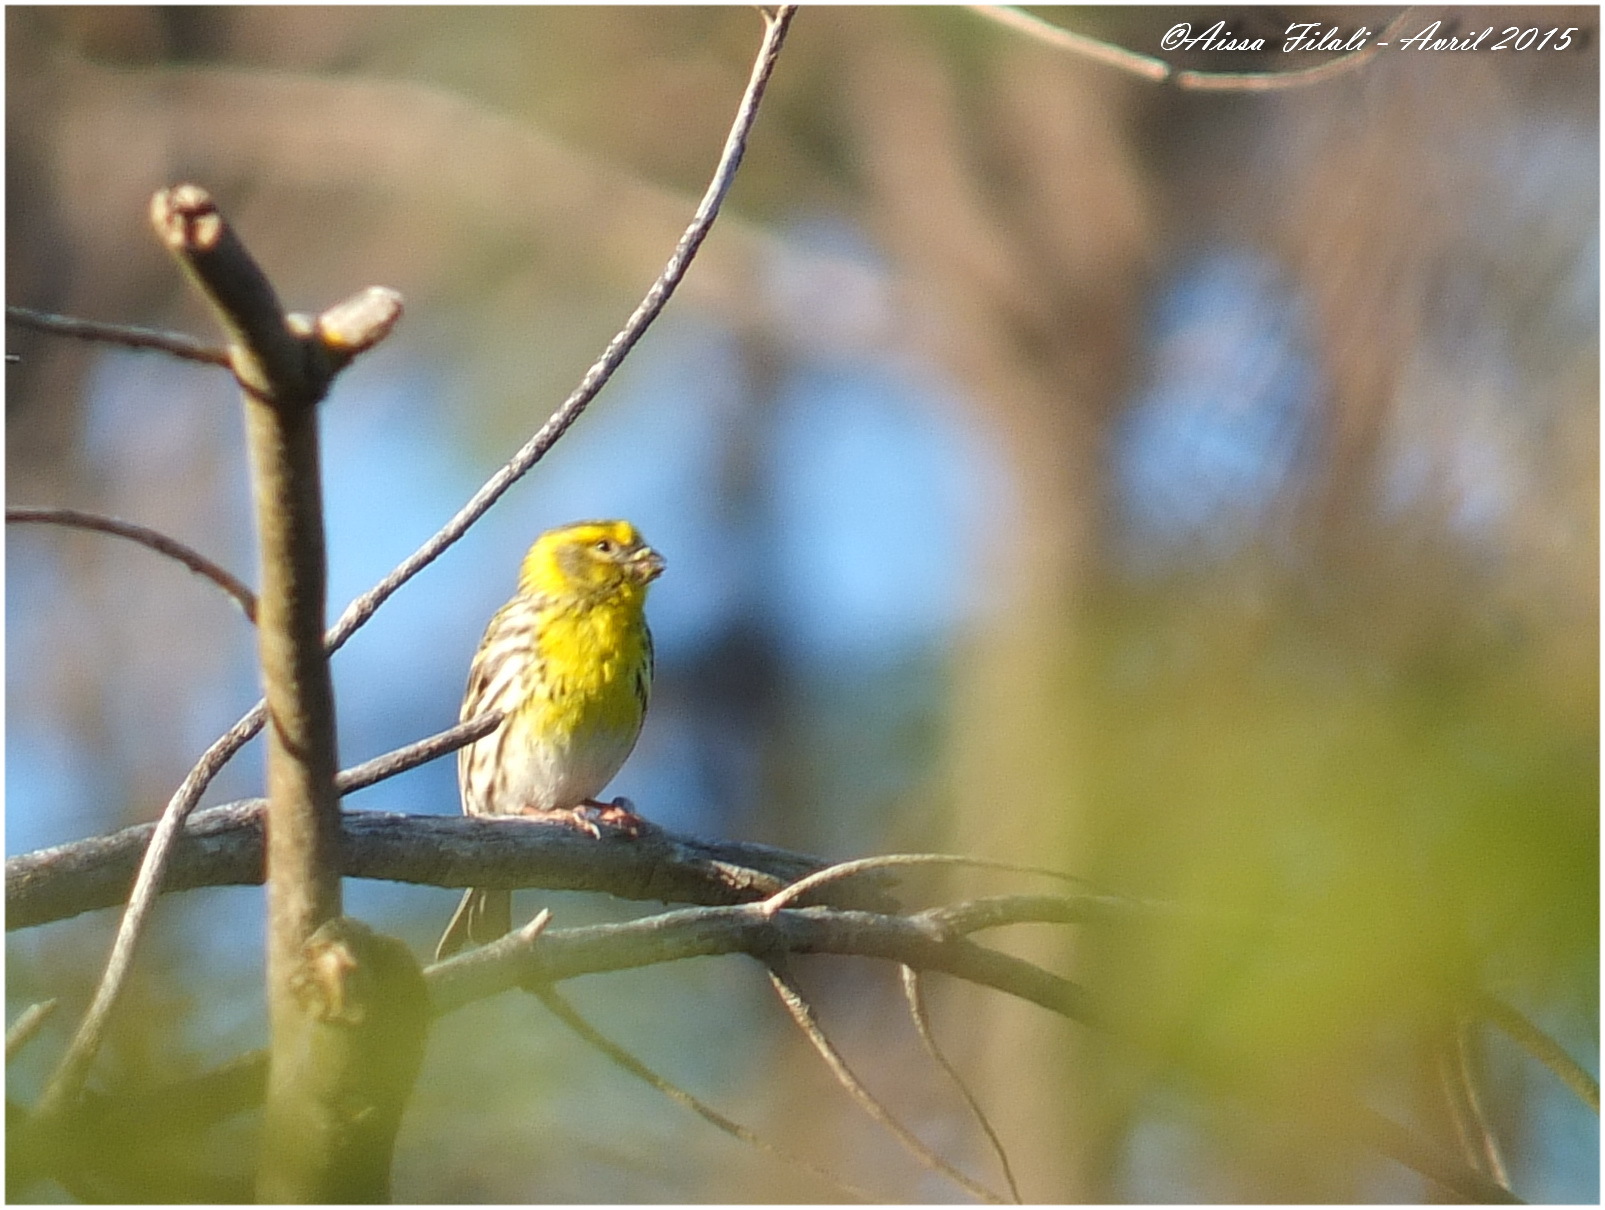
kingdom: Animalia
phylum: Chordata
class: Aves
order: Passeriformes
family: Fringillidae
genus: Serinus
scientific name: Serinus serinus
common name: European serin
